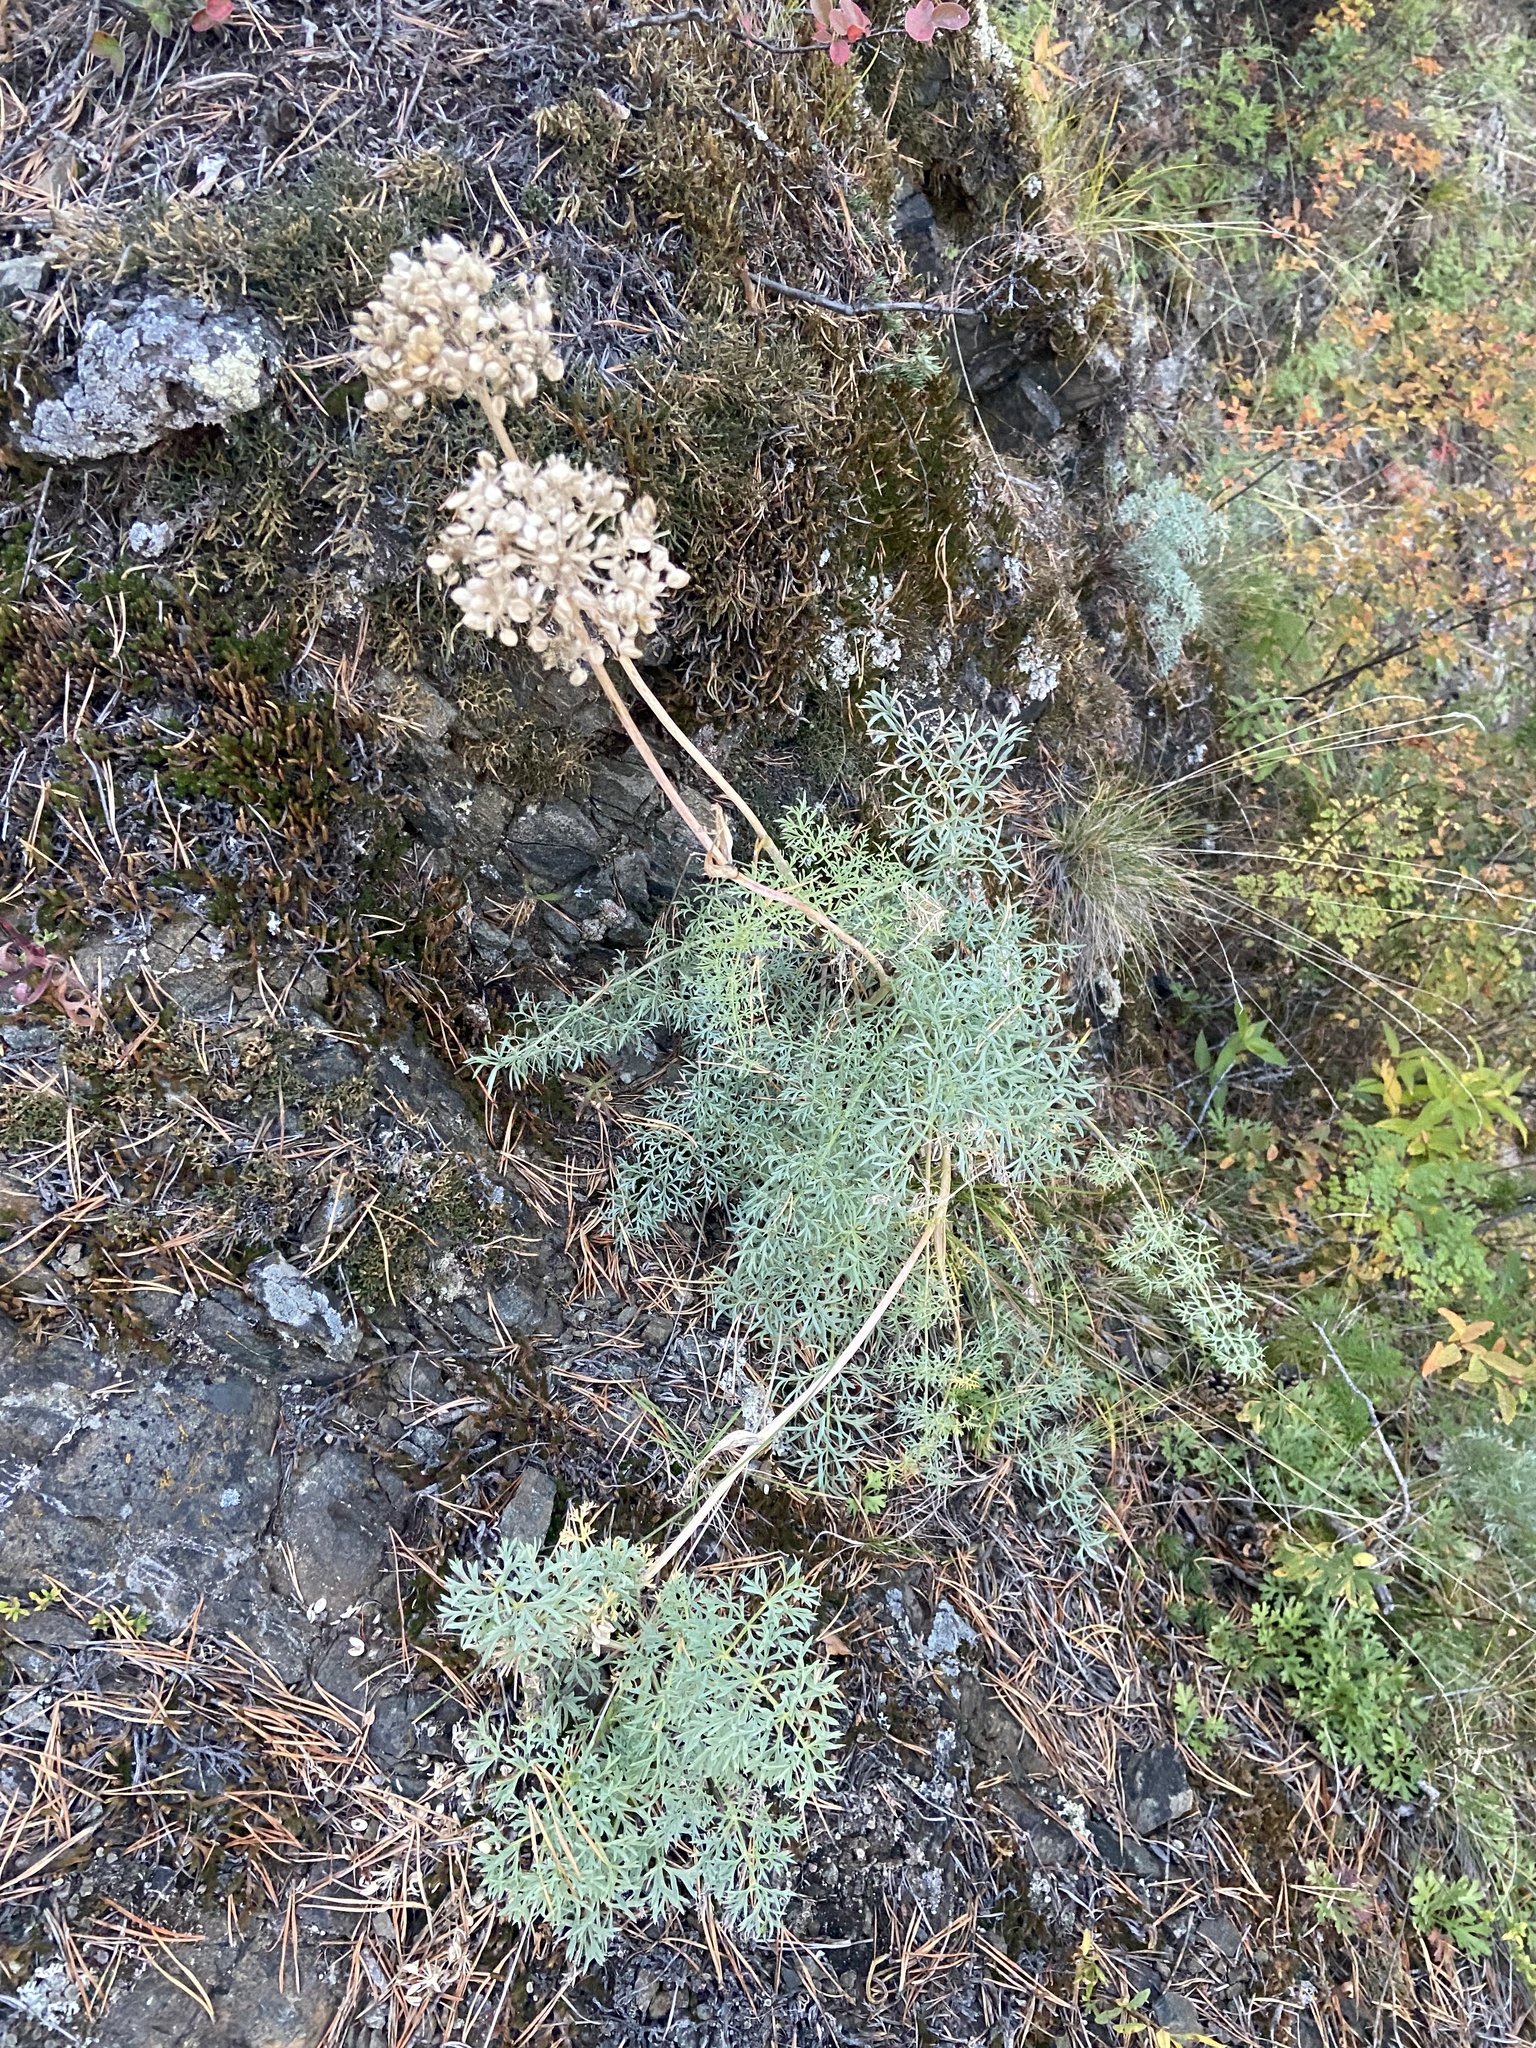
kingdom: Plantae
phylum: Tracheophyta
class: Magnoliopsida
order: Apiales
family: Apiaceae
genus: Phlojodicarpus
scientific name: Phlojodicarpus sibiricus
